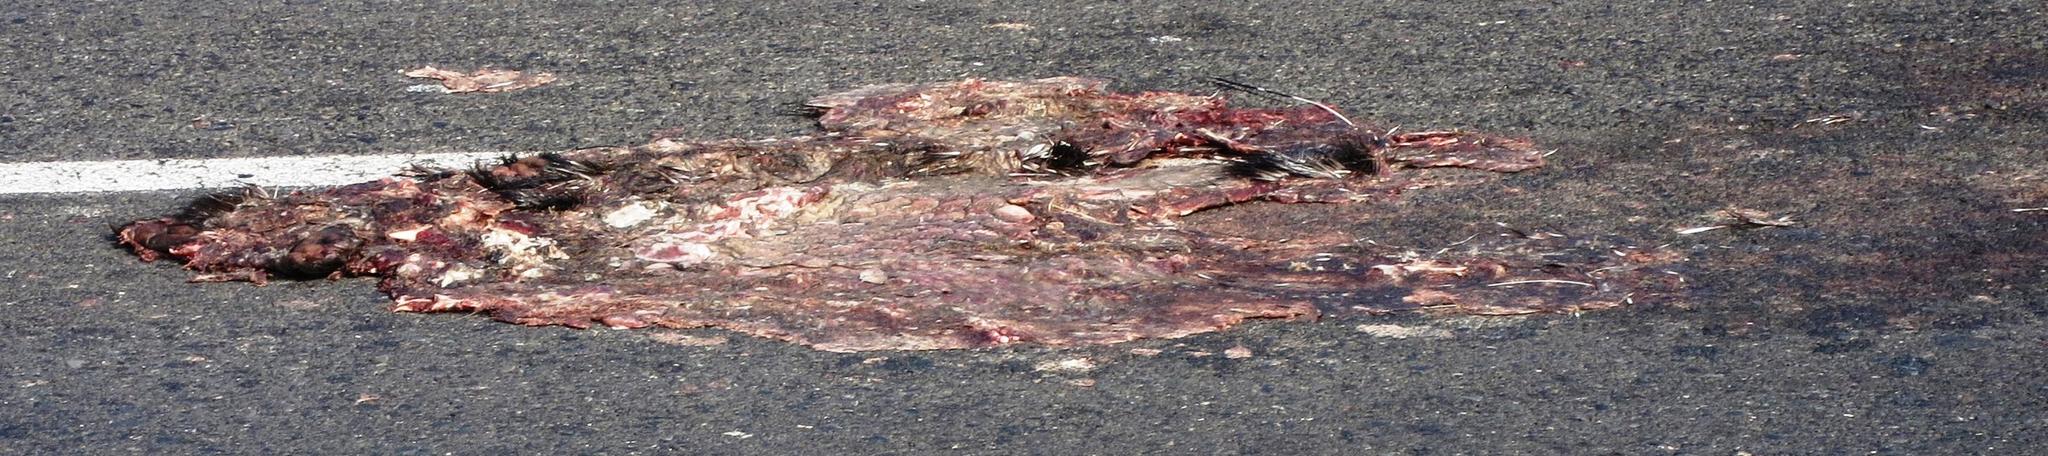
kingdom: Animalia
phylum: Chordata
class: Mammalia
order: Rodentia
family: Hystricidae
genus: Hystrix
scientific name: Hystrix africaeaustralis
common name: Cape porcupine
